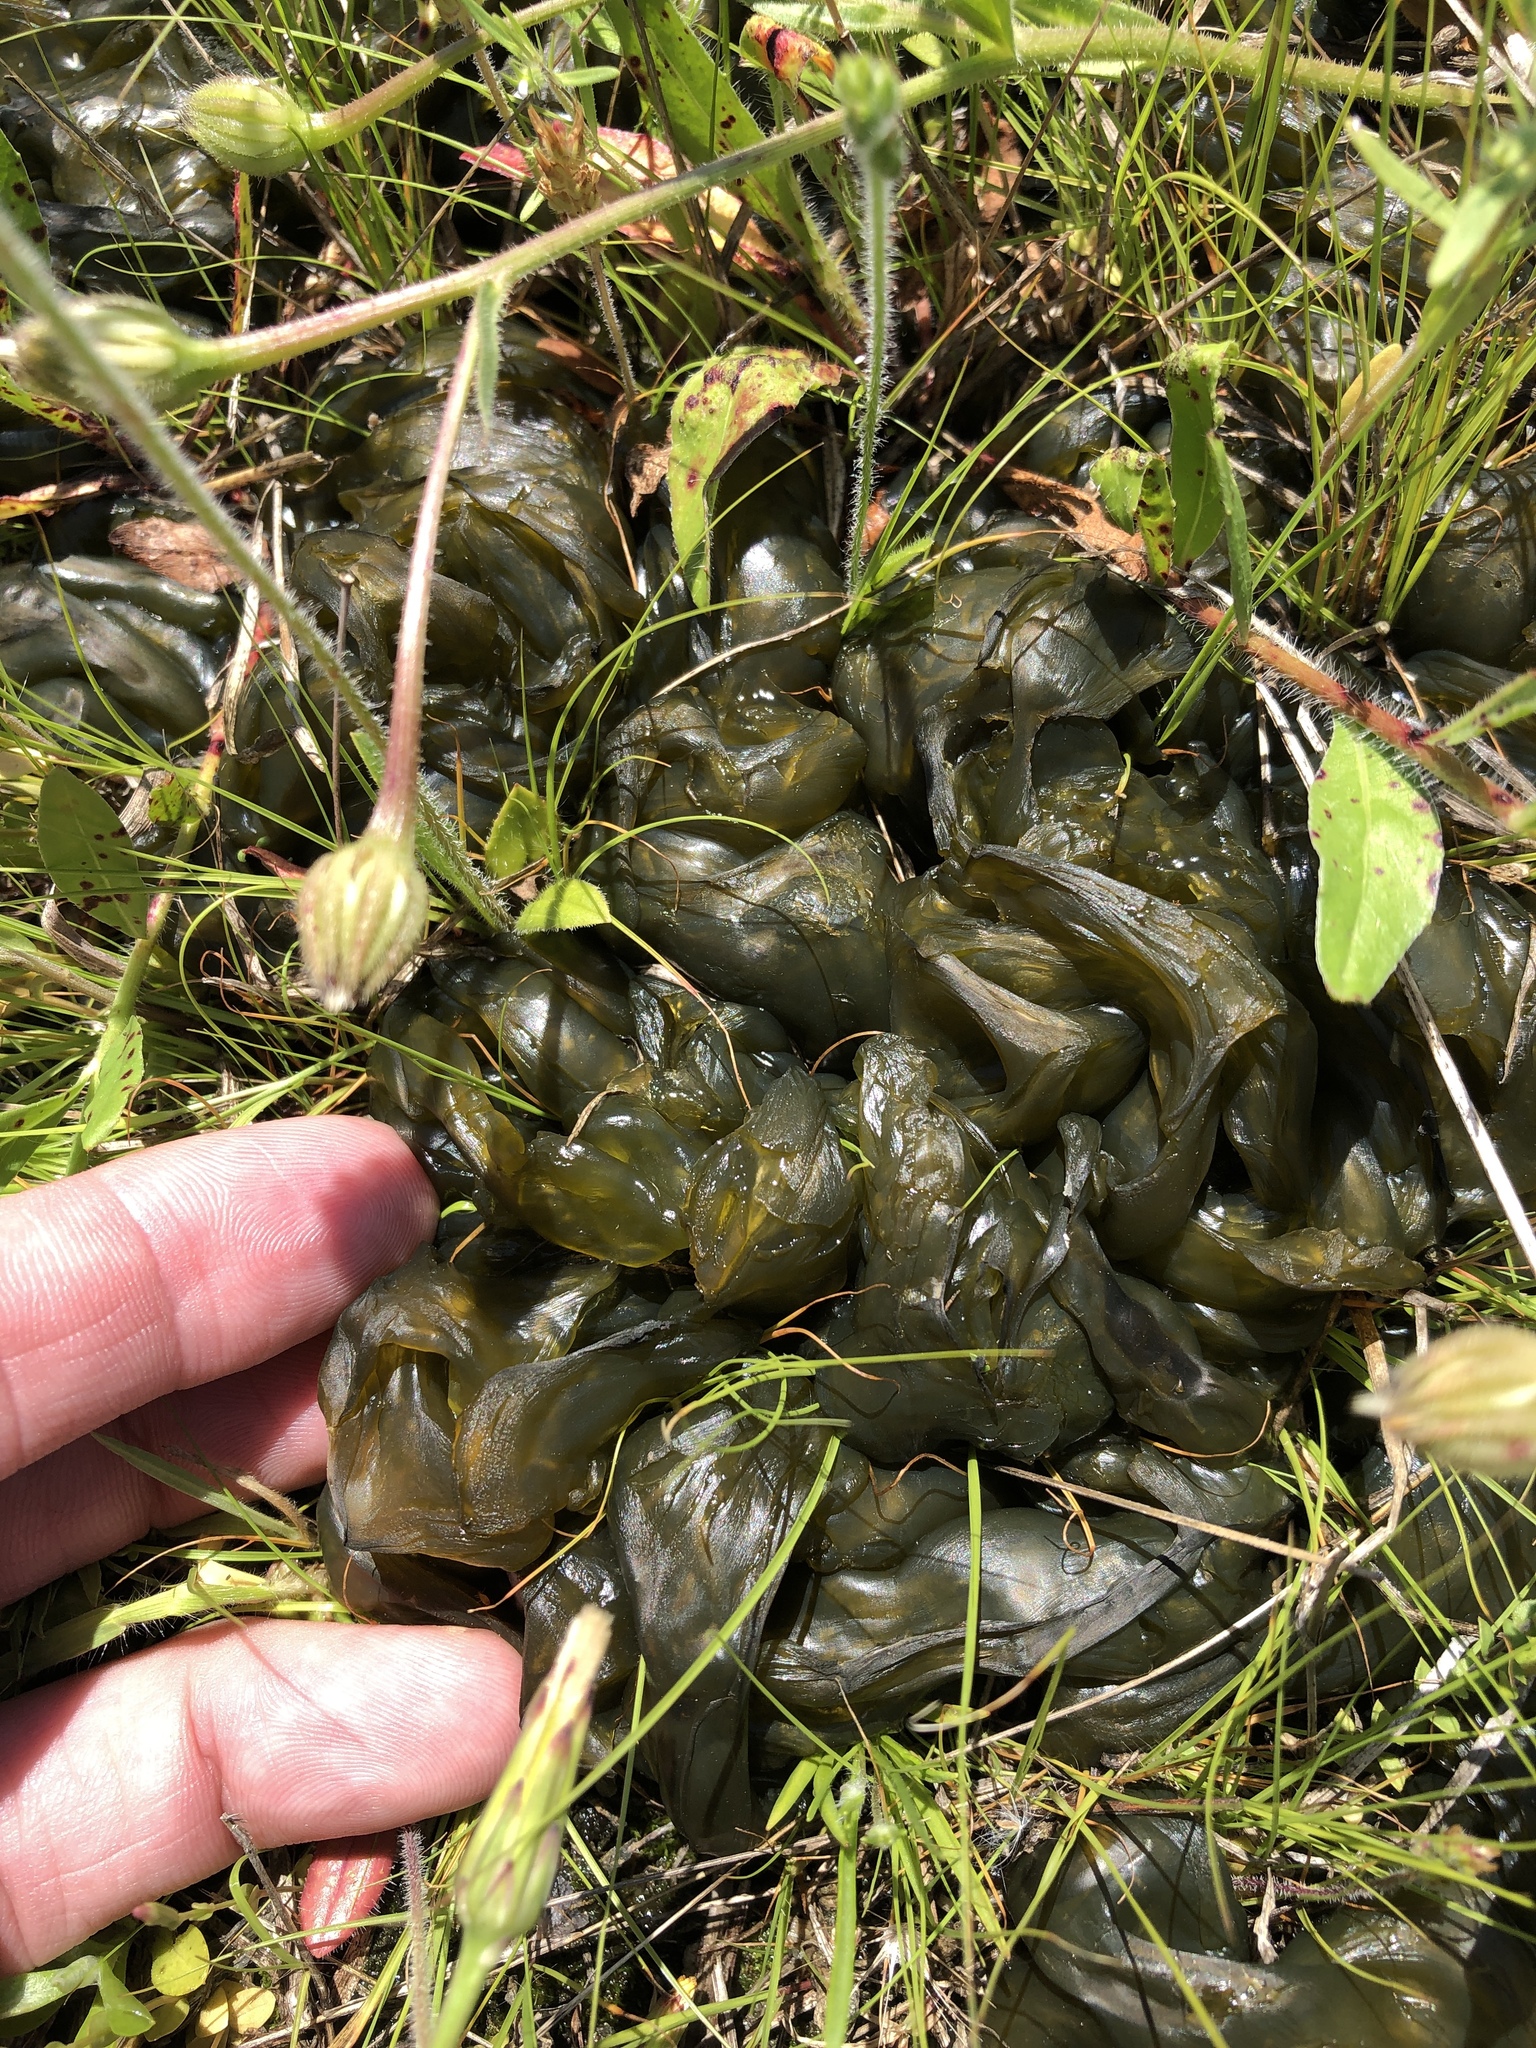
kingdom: Bacteria
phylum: Cyanobacteria
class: Cyanobacteriia
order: Cyanobacteriales
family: Nostocaceae
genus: Nostoc
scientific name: Nostoc commune
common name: Star jelly
